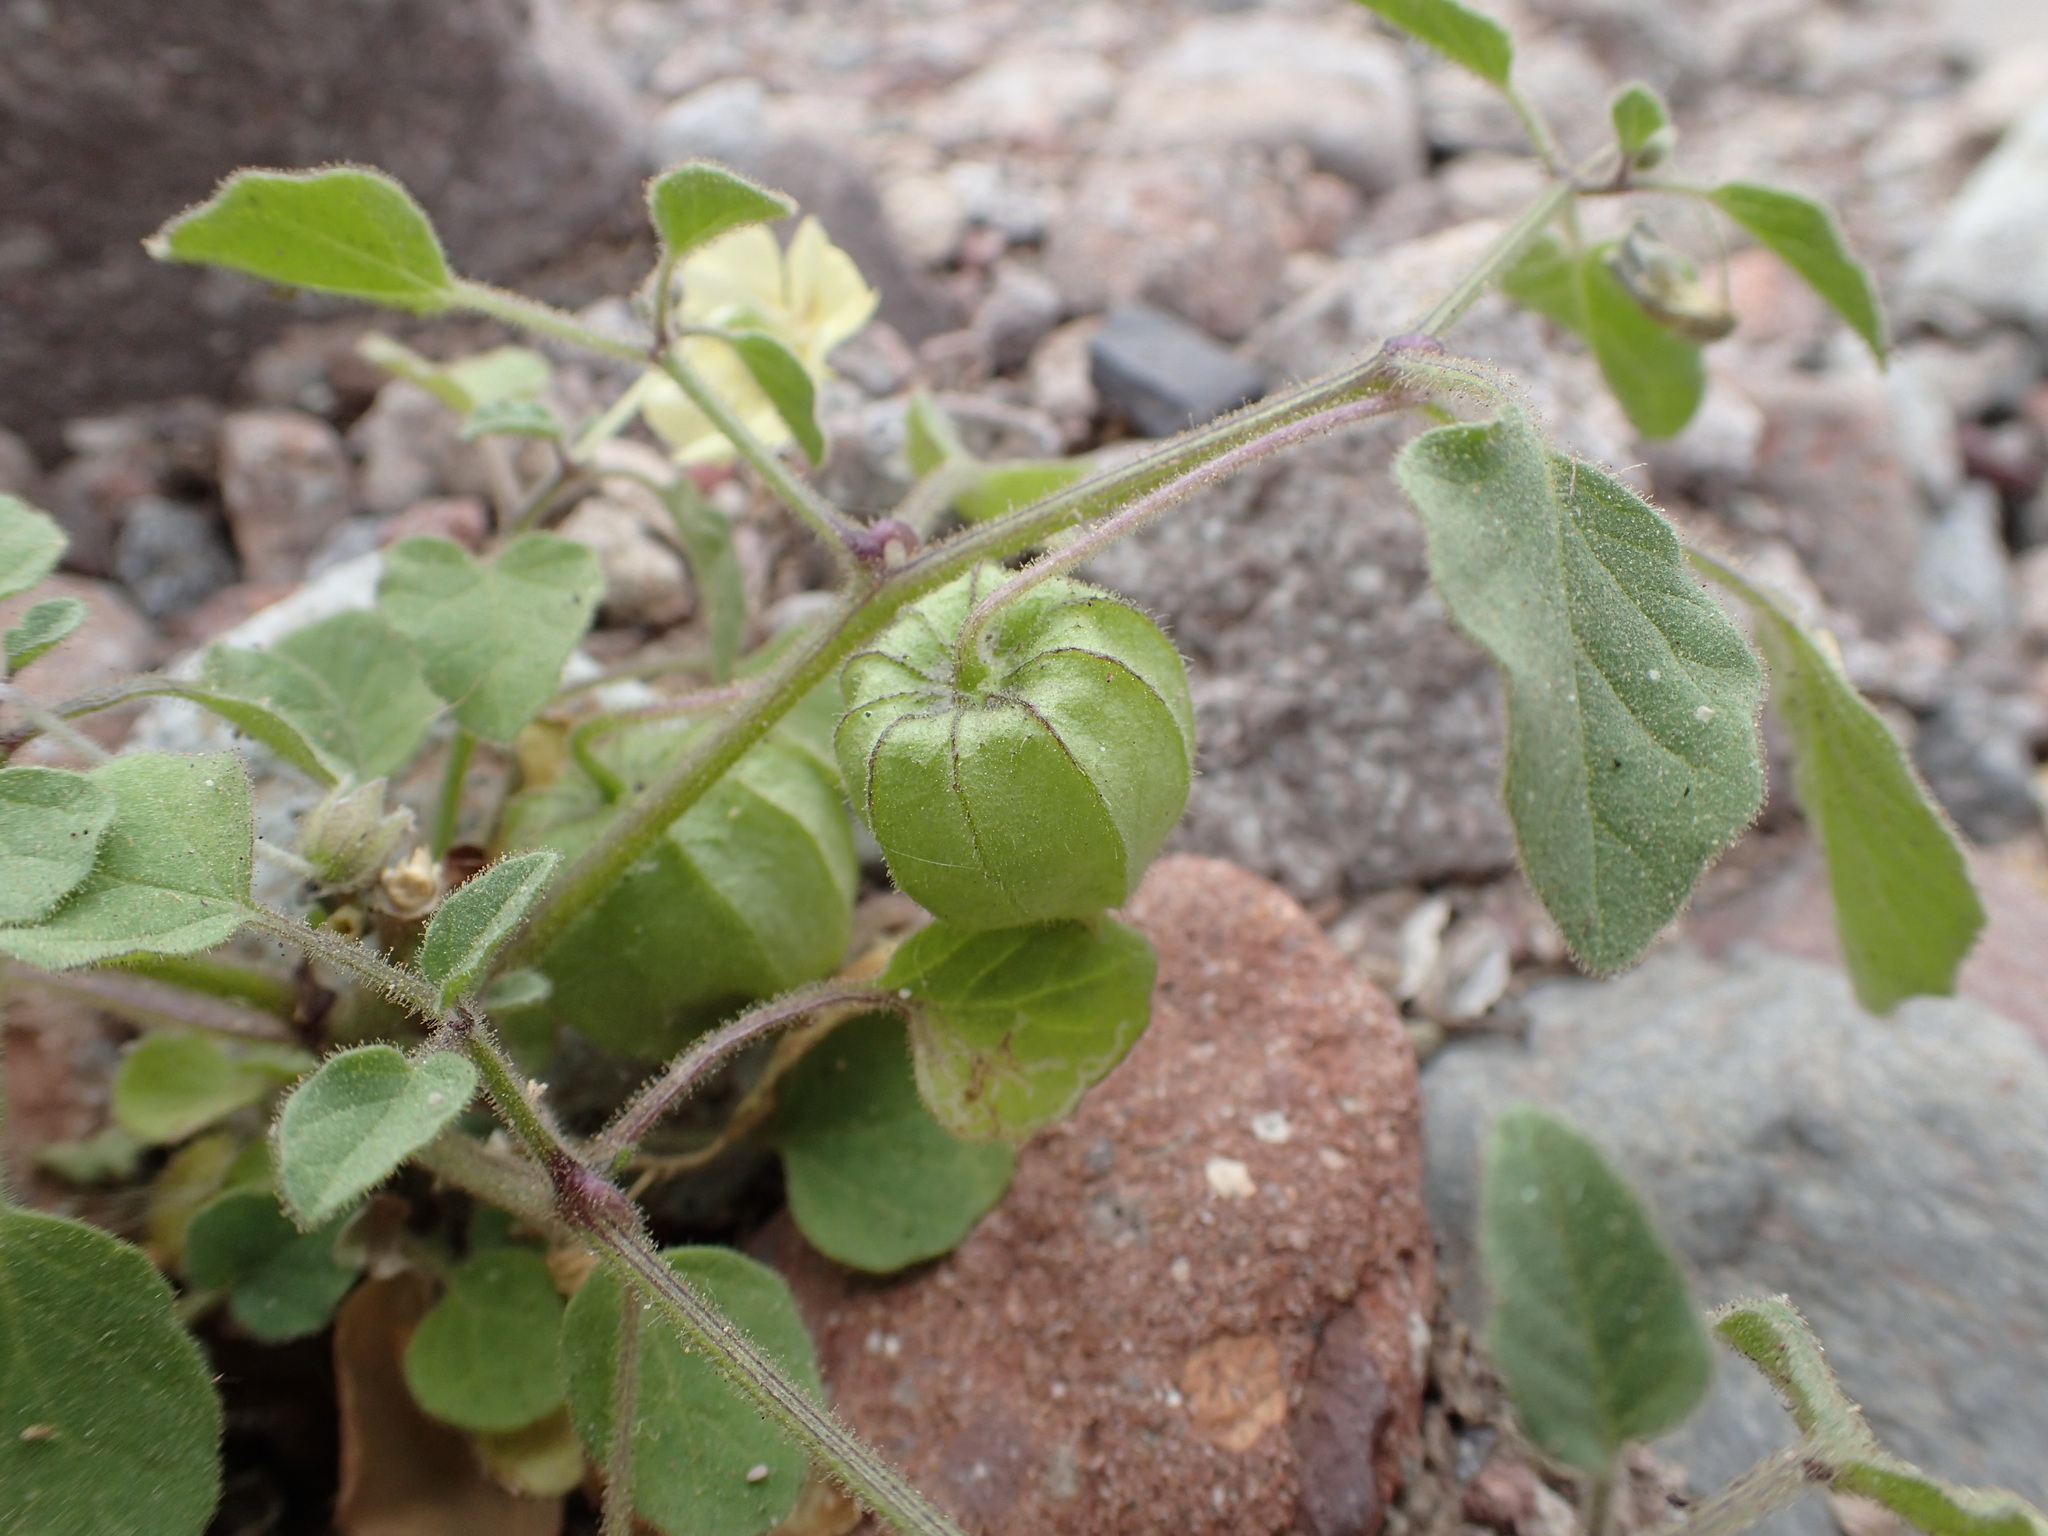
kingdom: Plantae
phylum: Tracheophyta
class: Magnoliopsida
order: Solanales
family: Solanaceae
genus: Physalis
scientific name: Physalis pubescens
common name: Downy ground-cherry
